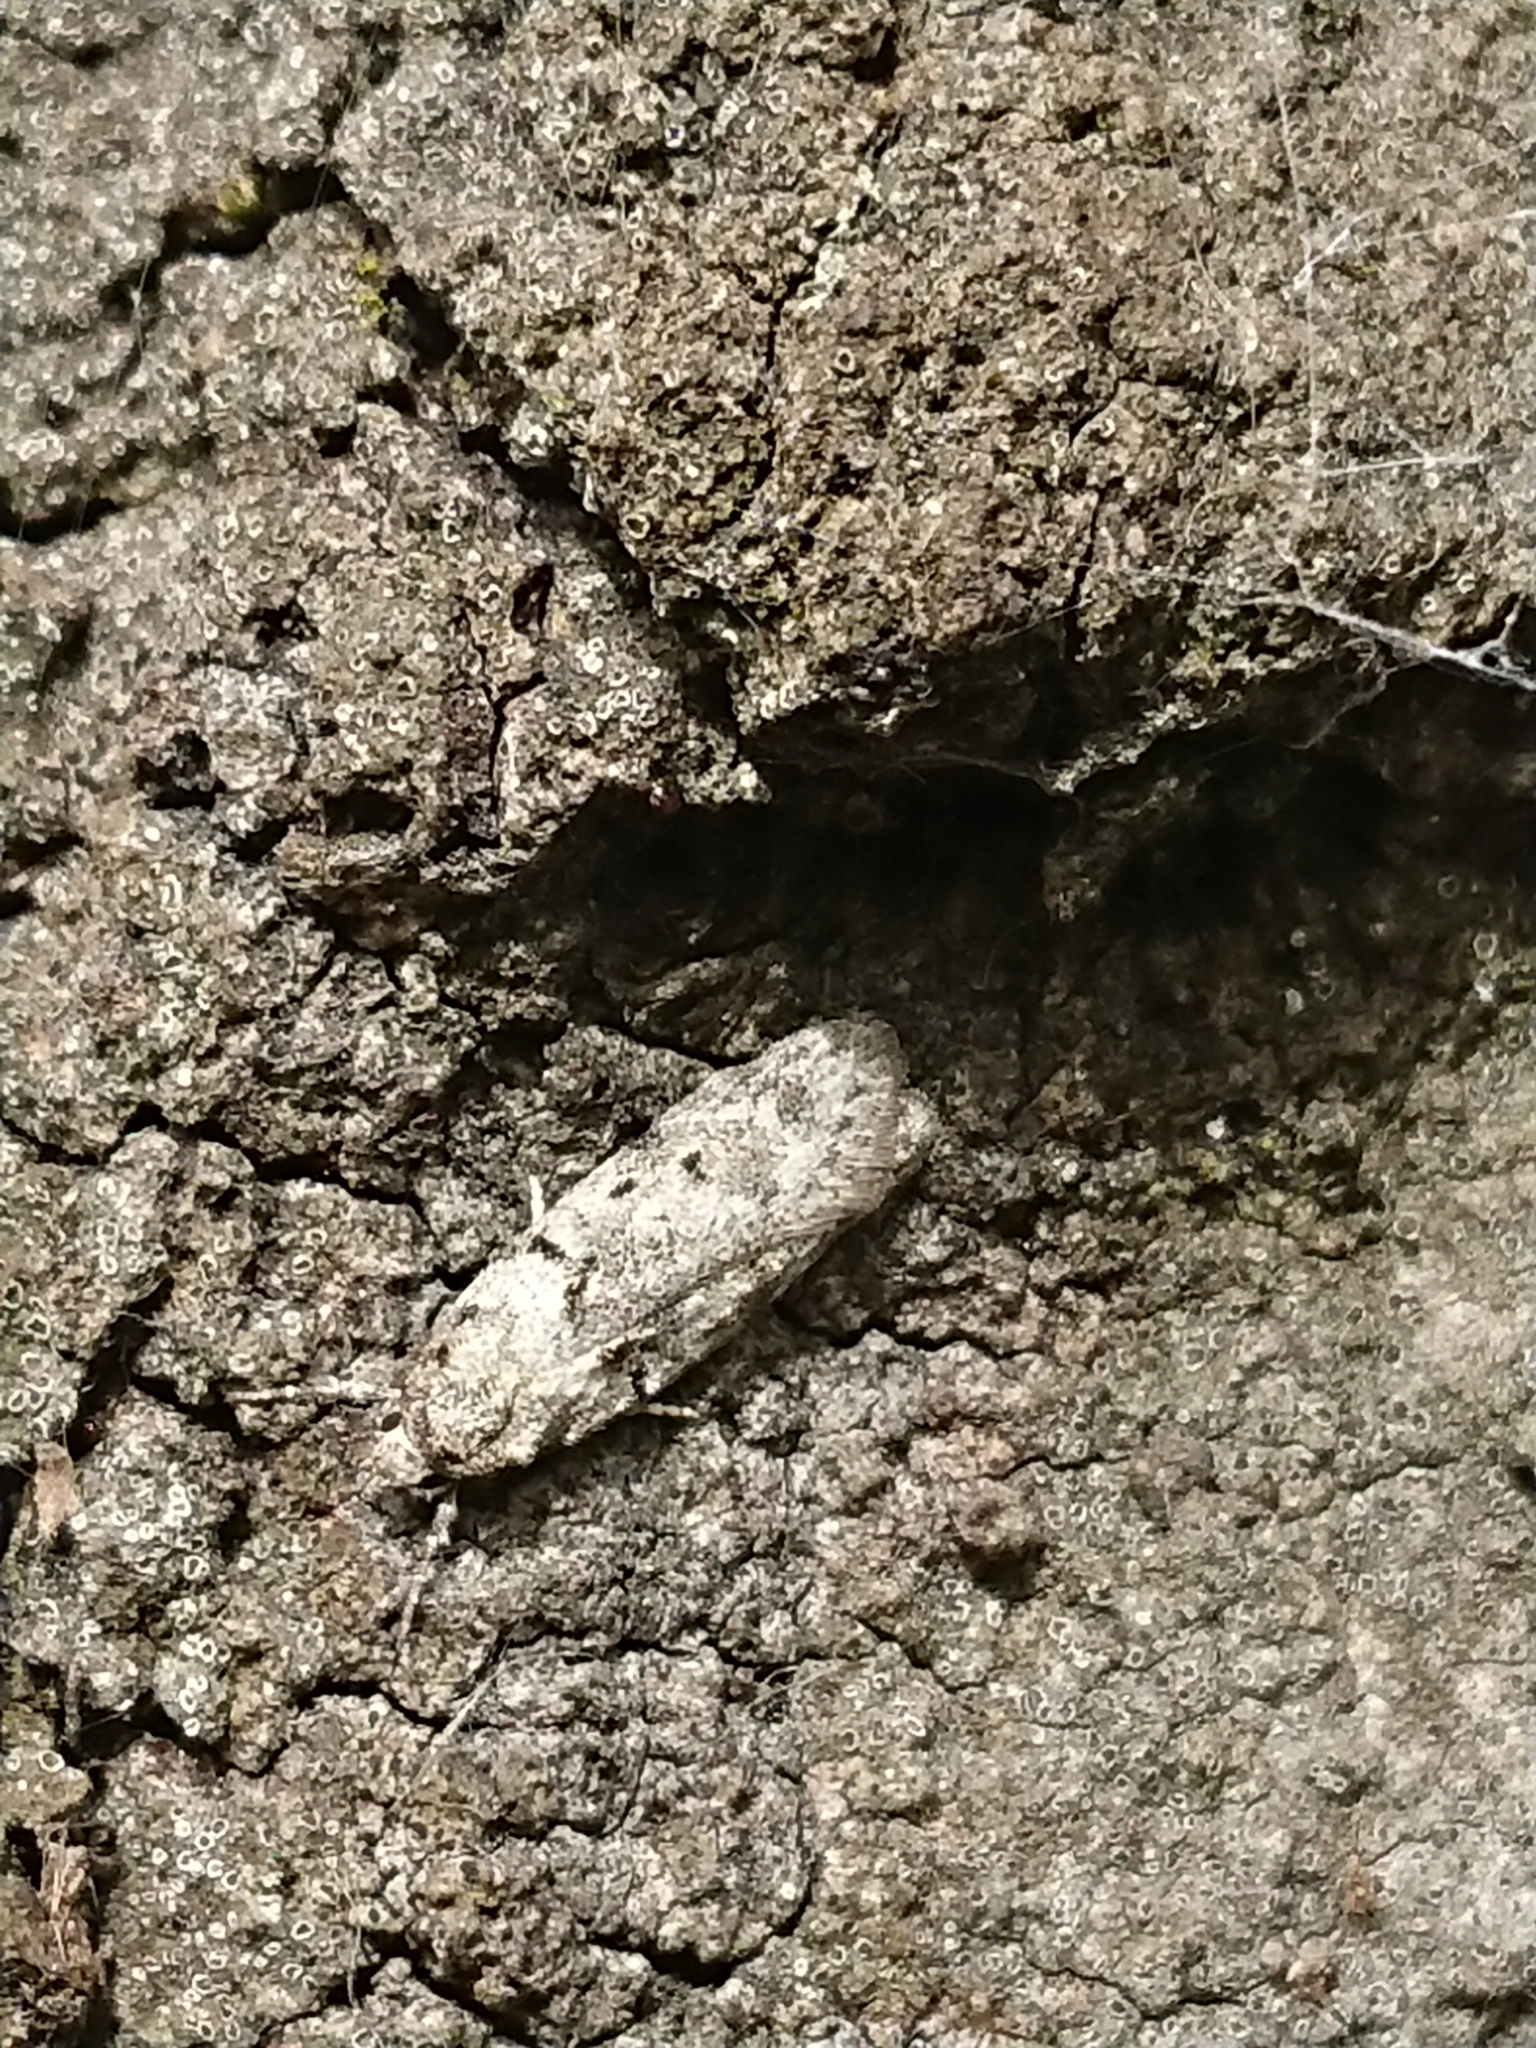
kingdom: Animalia
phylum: Arthropoda
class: Insecta
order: Lepidoptera
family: Oecophoridae
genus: Izatha
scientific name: Izatha convulsella
